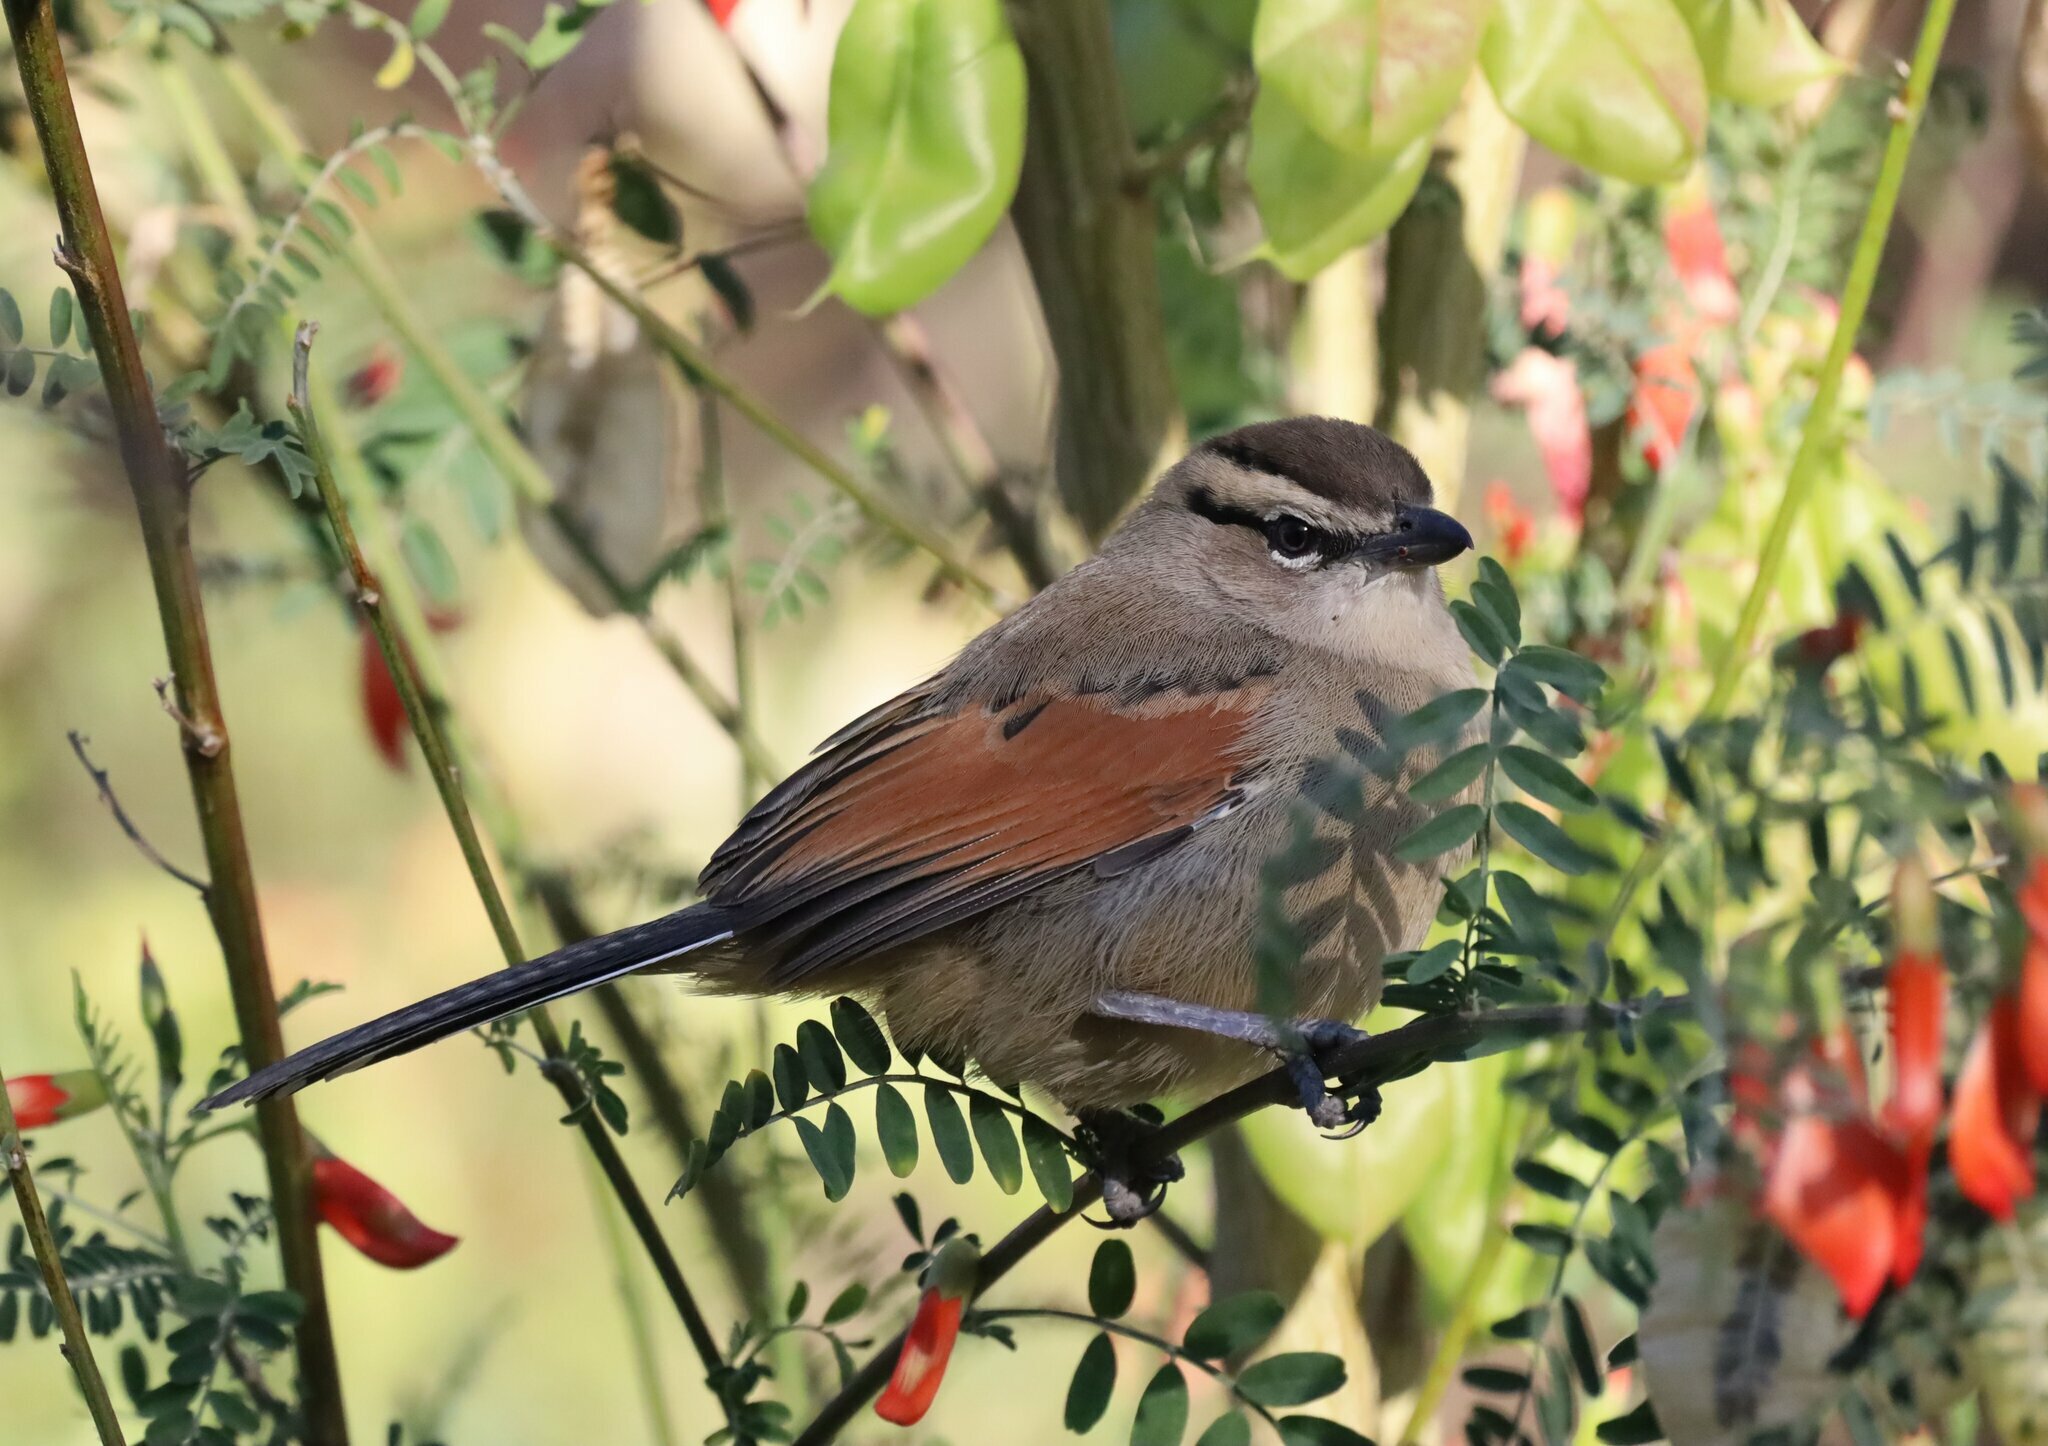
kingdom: Animalia
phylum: Chordata
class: Aves
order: Passeriformes
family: Malaconotidae
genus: Tchagra
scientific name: Tchagra australis
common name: Brown-crowned tchagra
